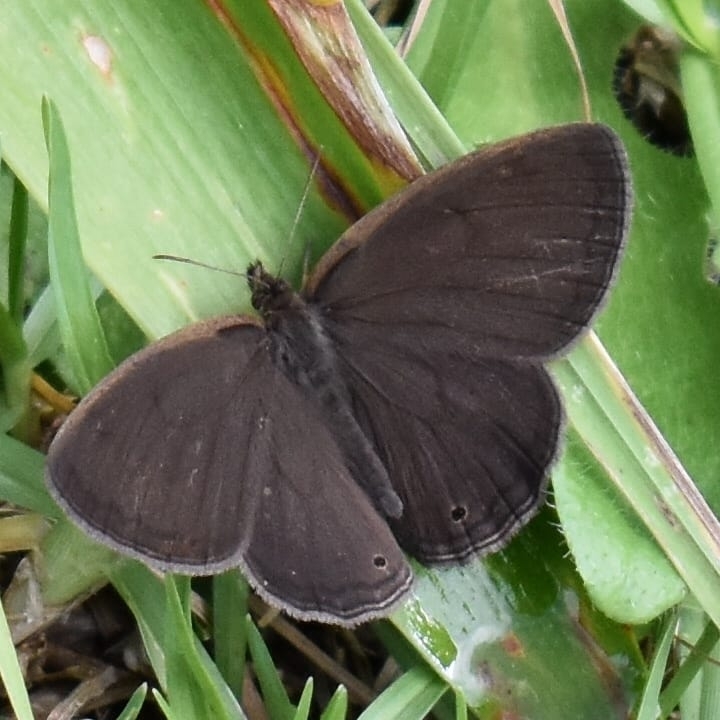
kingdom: Animalia
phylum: Arthropoda
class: Insecta
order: Lepidoptera
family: Nymphalidae
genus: Pharneuptychia
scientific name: Pharneuptychia phares
